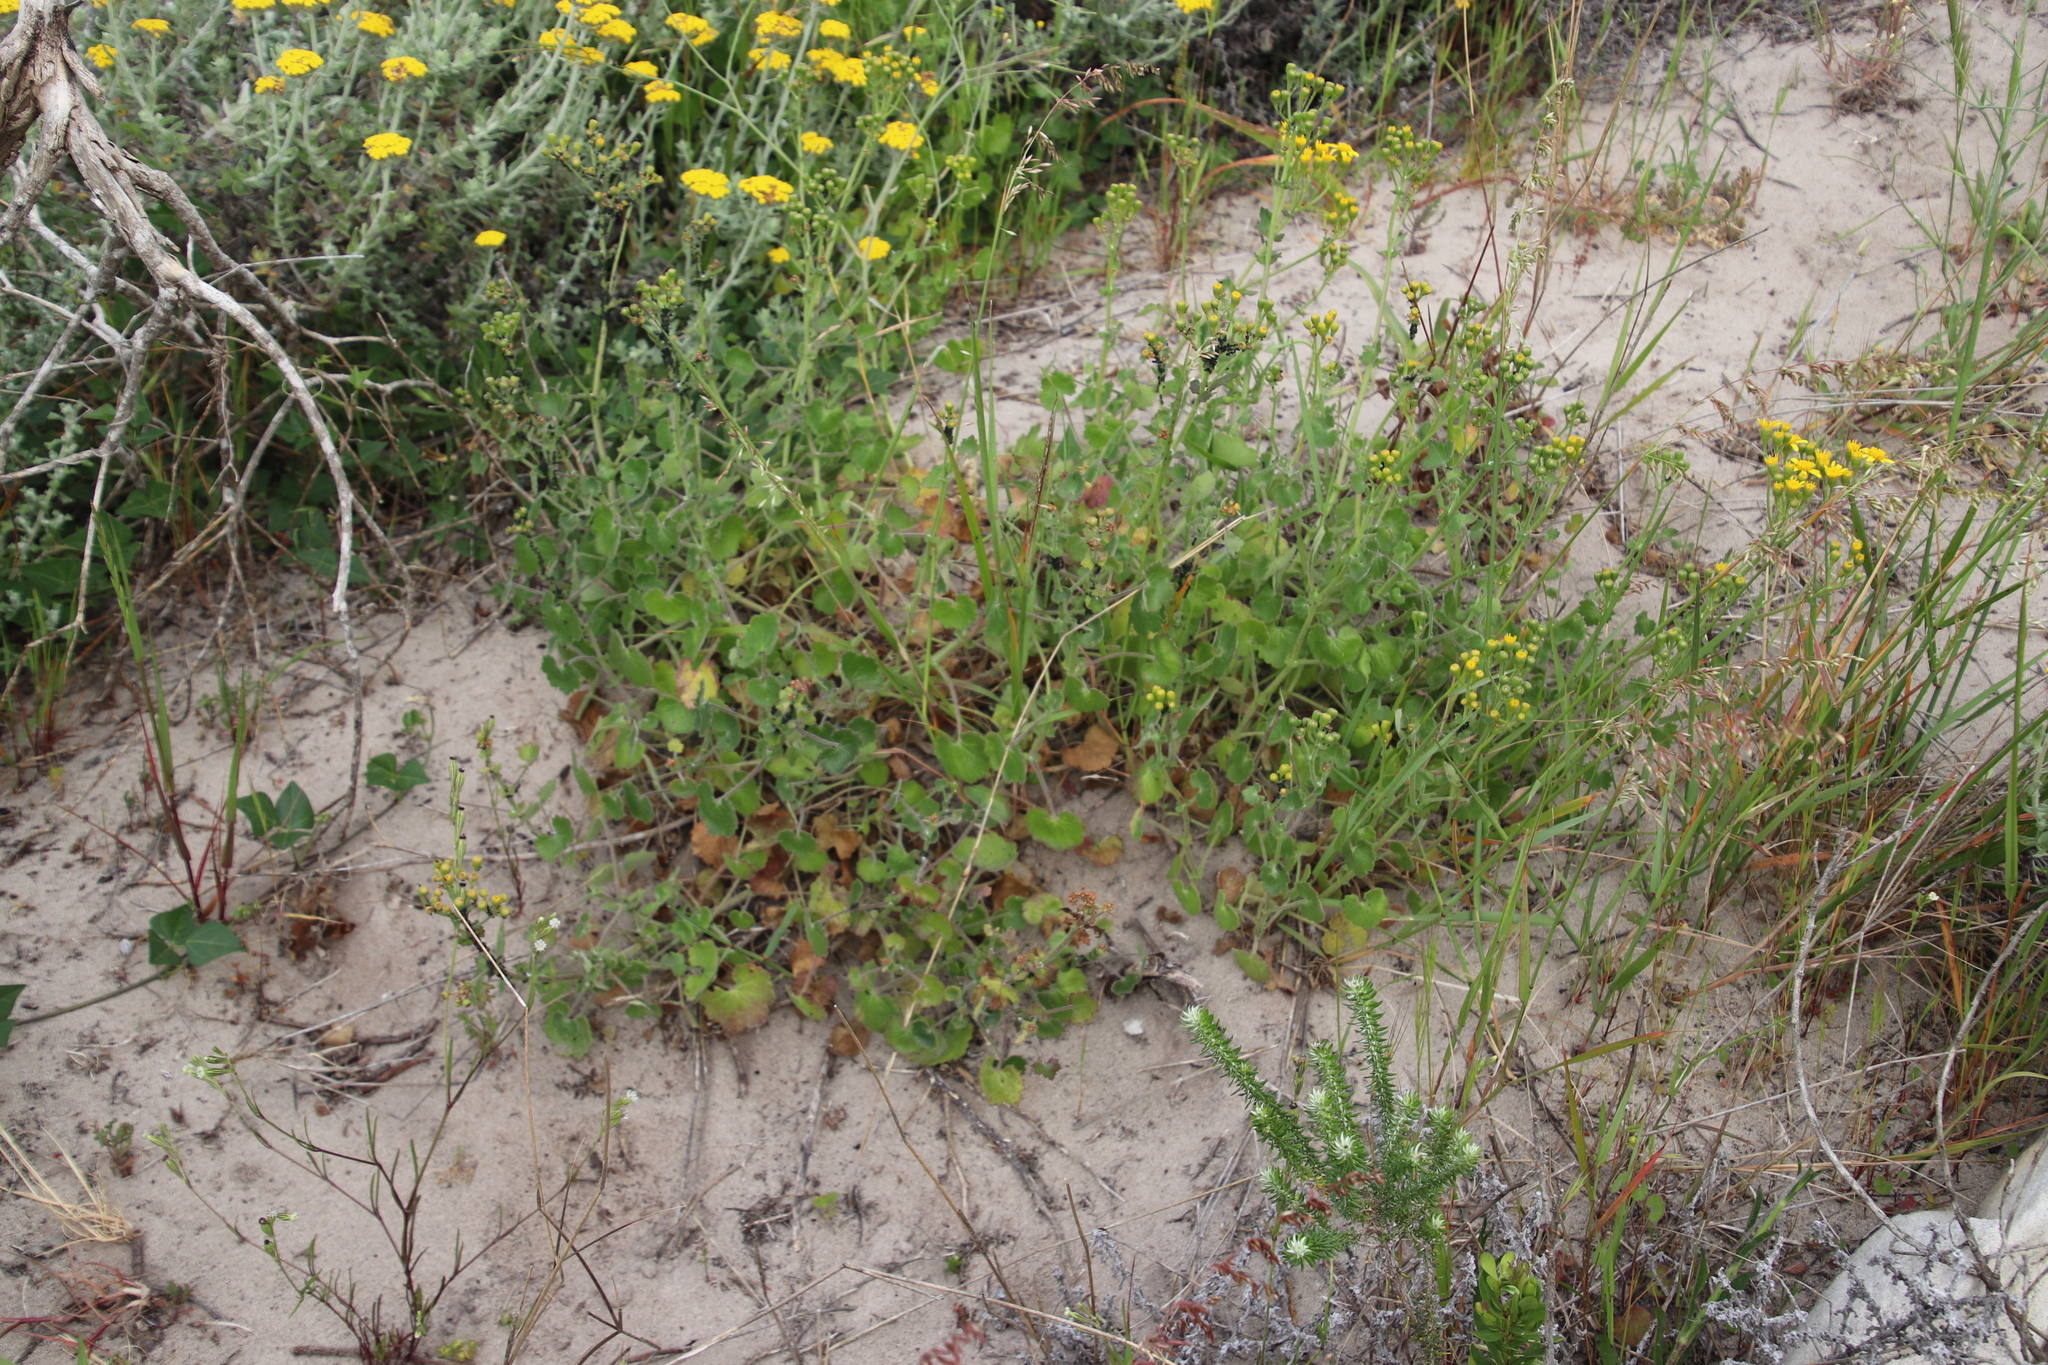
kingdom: Plantae
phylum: Tracheophyta
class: Magnoliopsida
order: Asterales
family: Asteraceae
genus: Cineraria
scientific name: Cineraria geifolia
